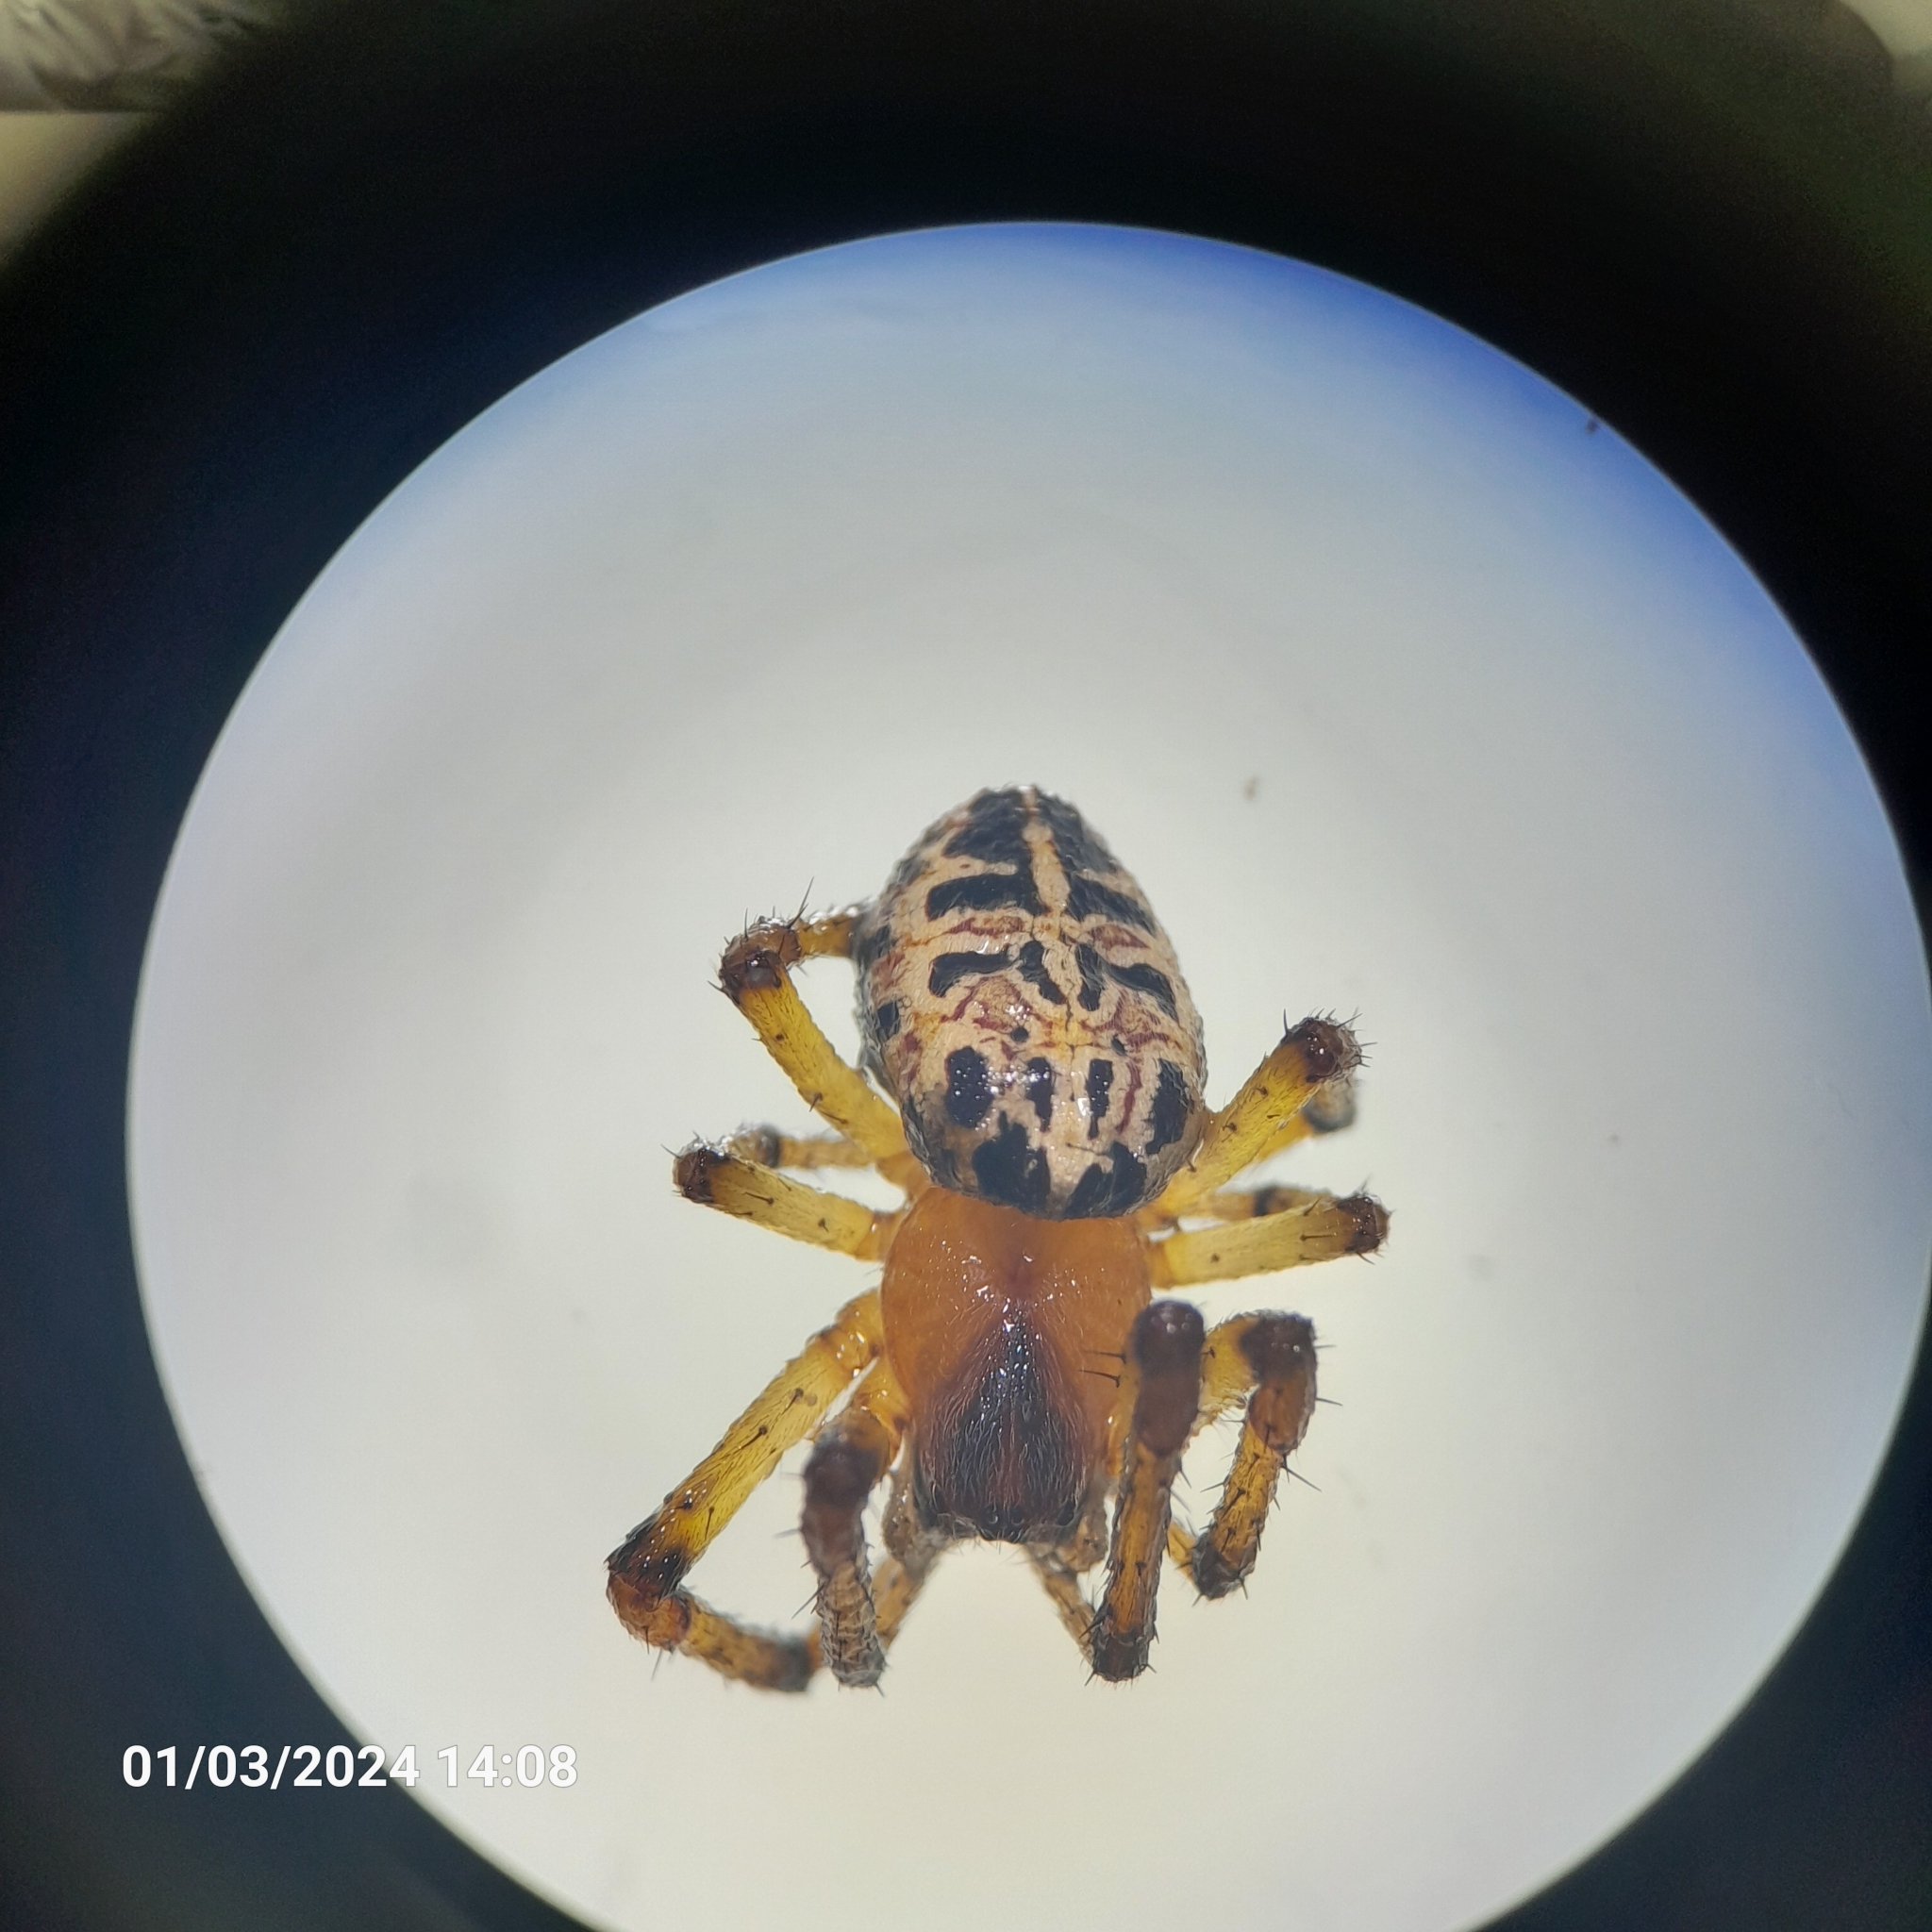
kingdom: Animalia
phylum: Arthropoda
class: Arachnida
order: Araneae
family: Araneidae
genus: Alpaida
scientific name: Alpaida veniliae
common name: Orb weavers
